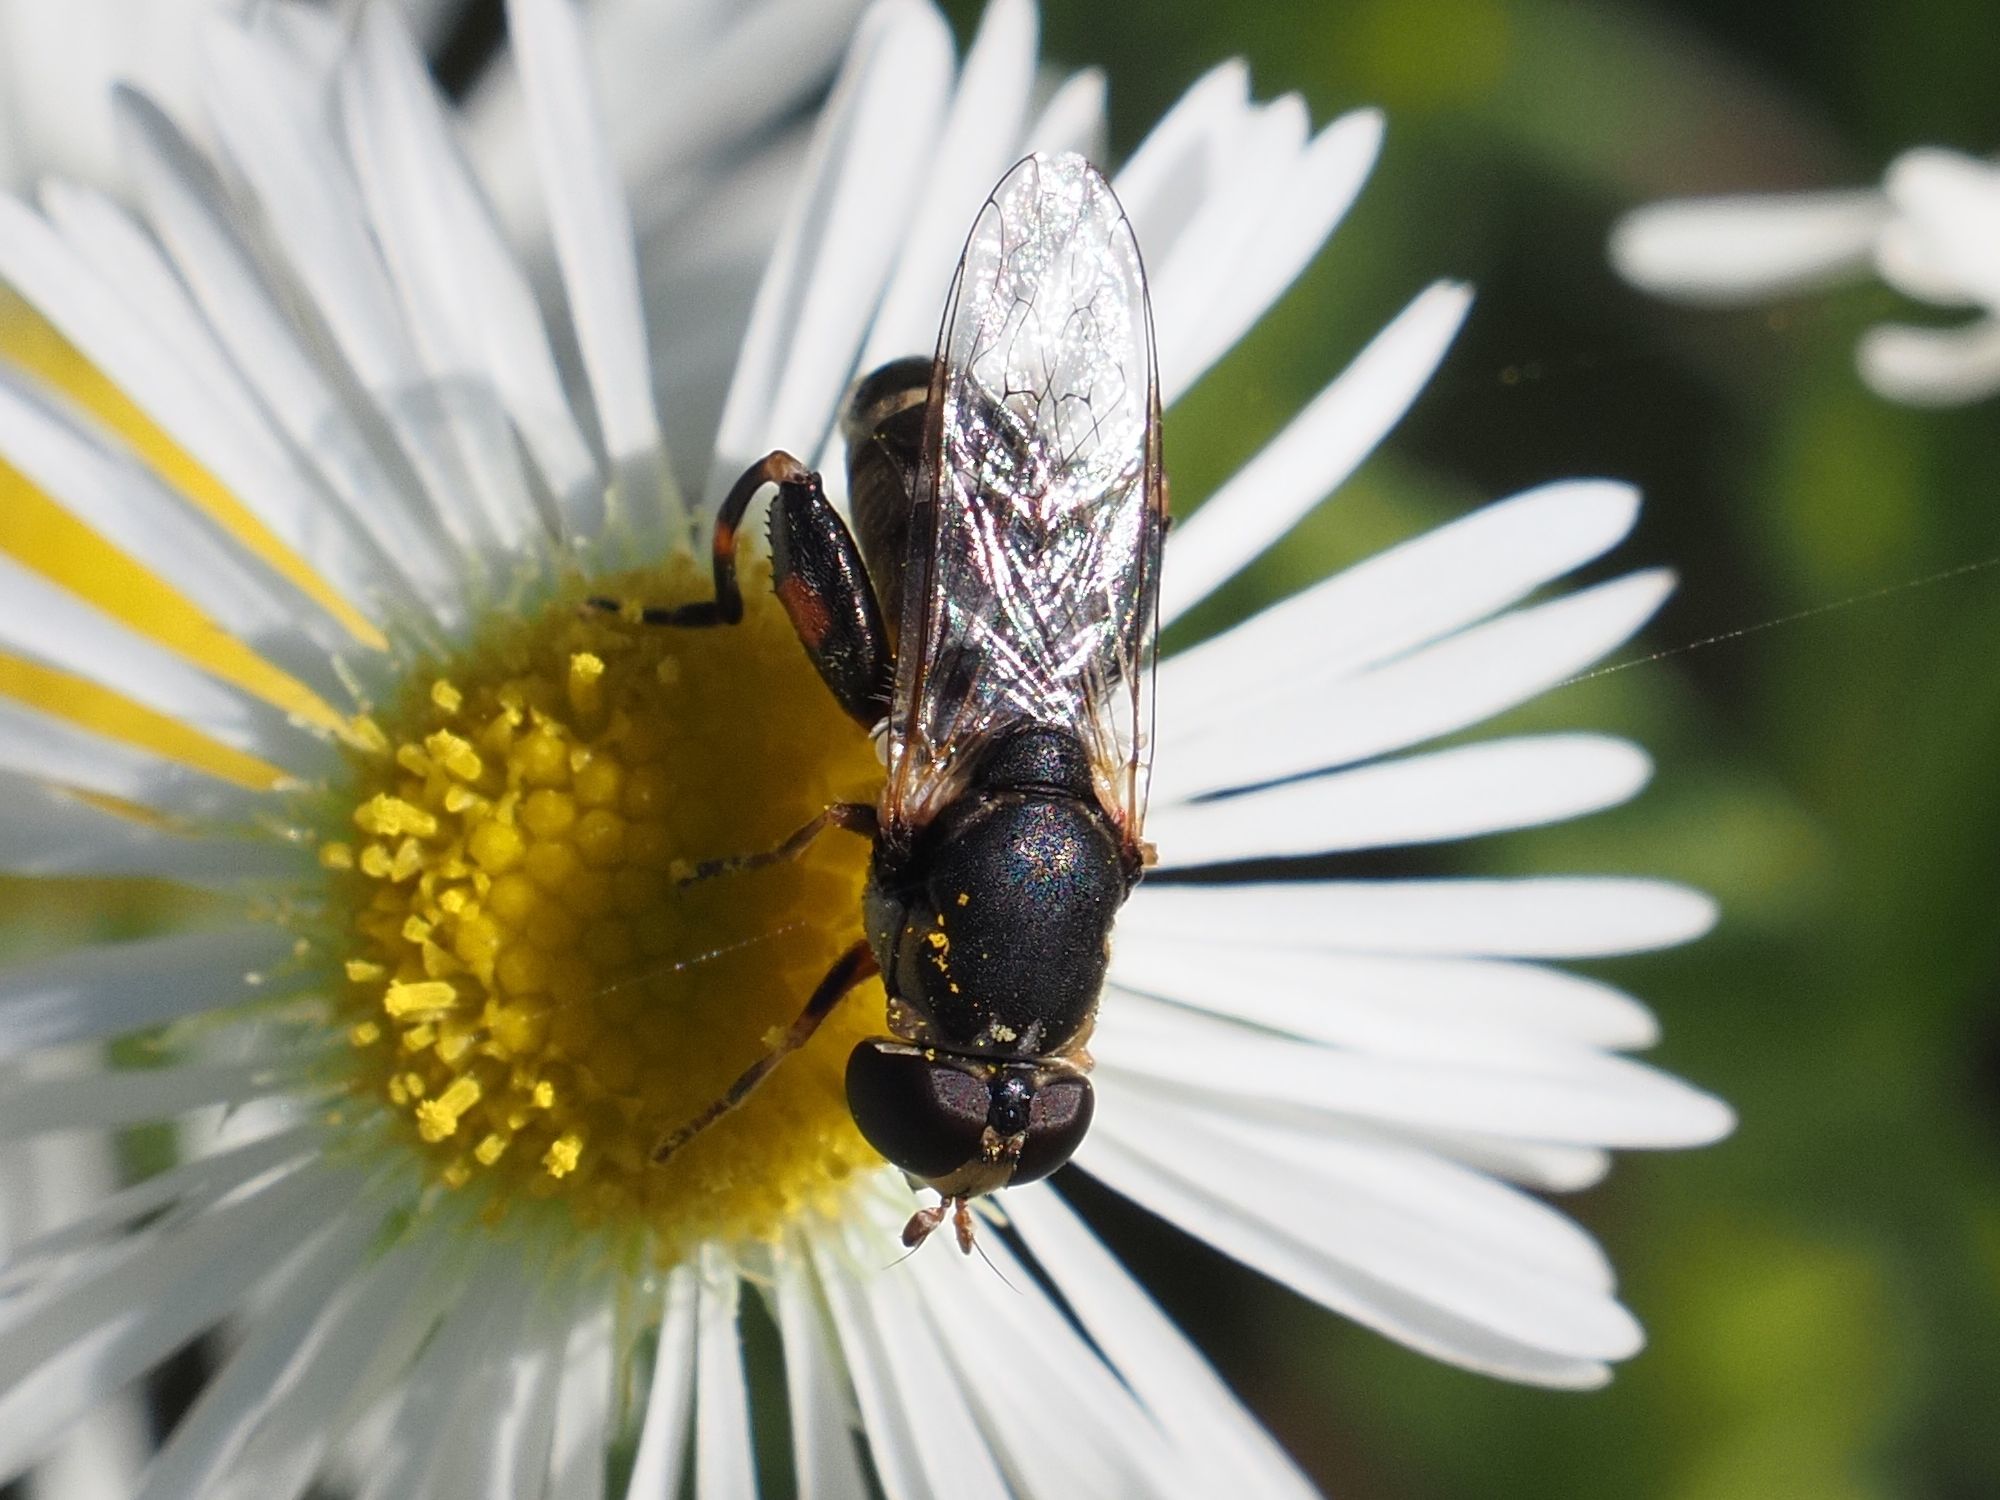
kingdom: Animalia
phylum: Arthropoda
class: Insecta
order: Diptera
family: Syrphidae
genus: Syritta
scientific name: Syritta pipiens
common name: Hover fly
